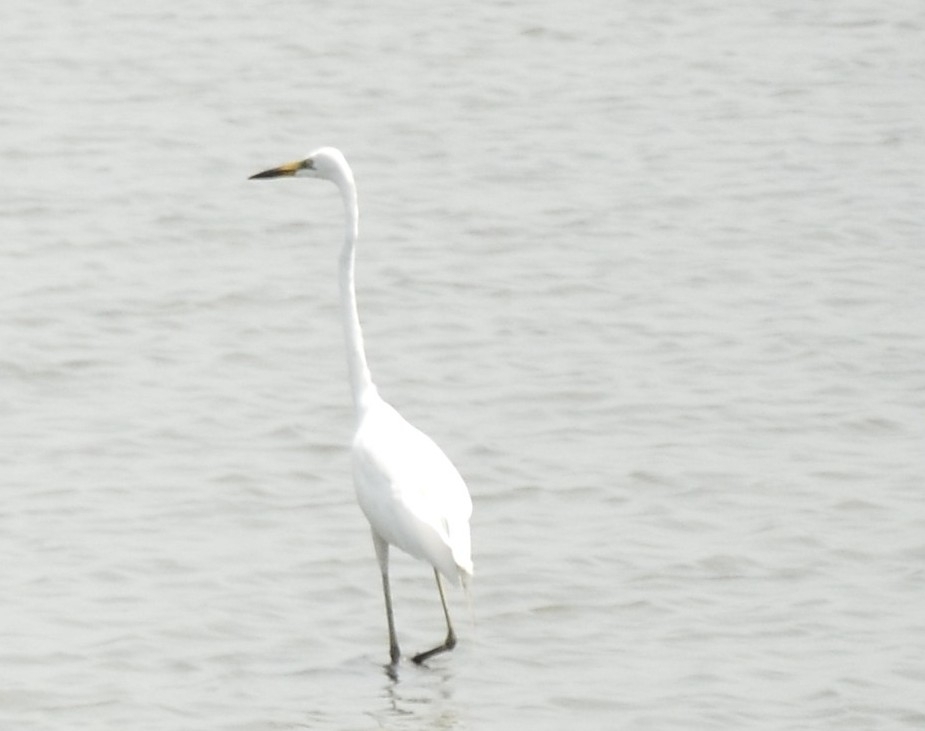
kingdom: Animalia
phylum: Chordata
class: Aves
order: Pelecaniformes
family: Ardeidae
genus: Ardea
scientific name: Ardea alba
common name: Great egret
